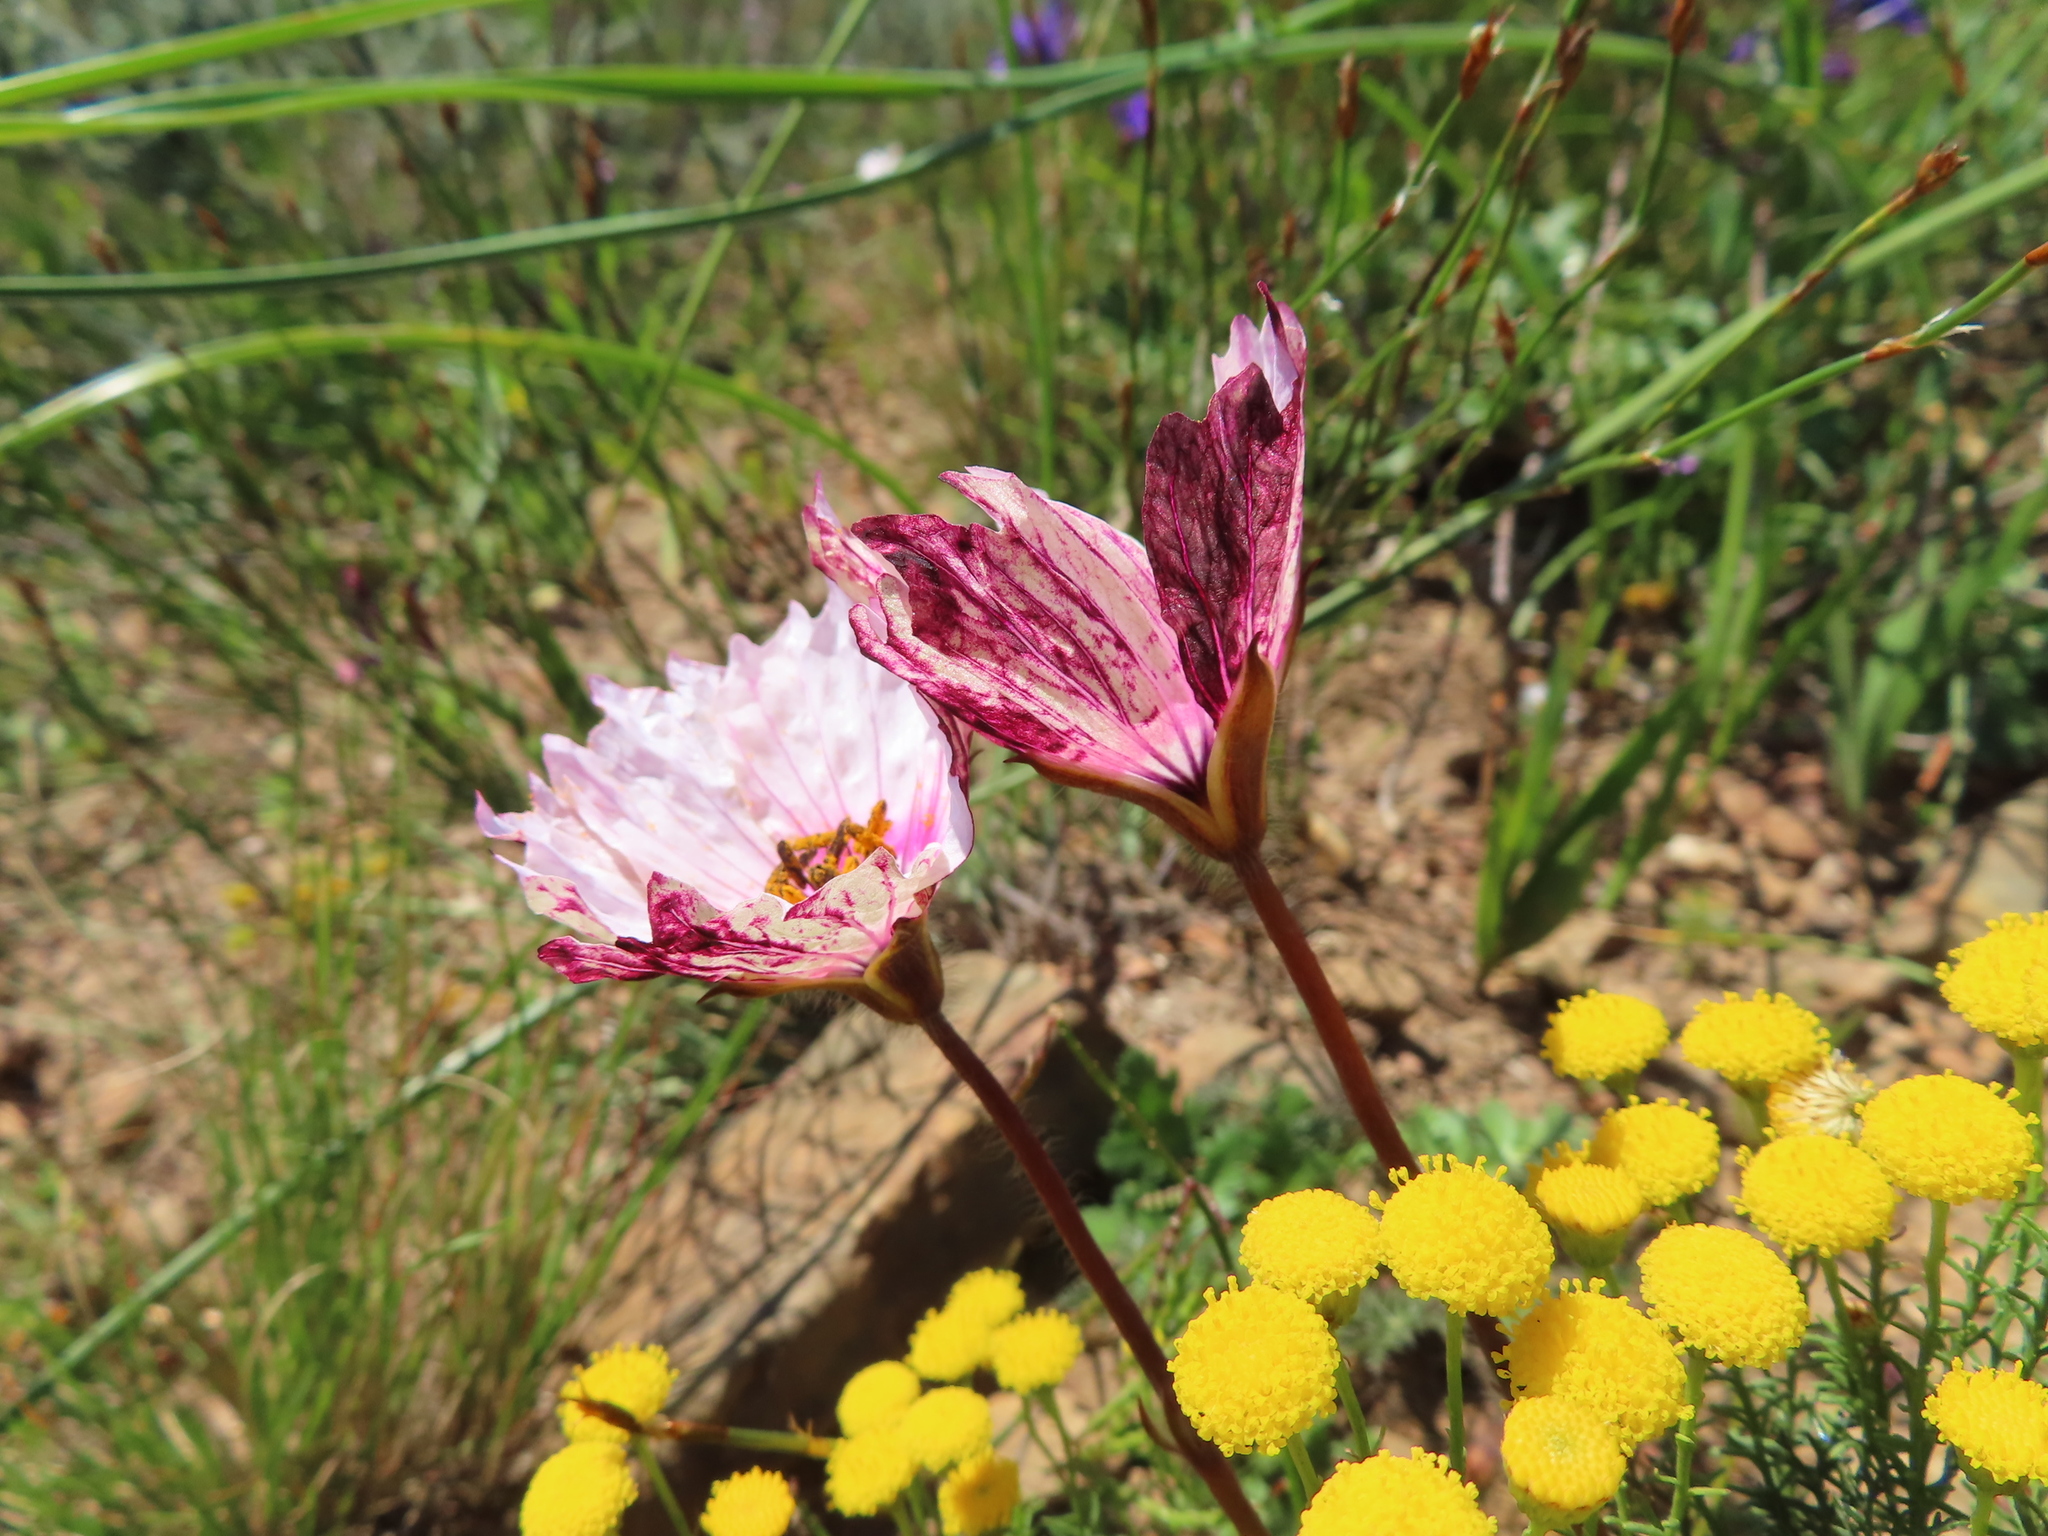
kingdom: Plantae
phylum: Tracheophyta
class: Magnoliopsida
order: Geraniales
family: Geraniaceae
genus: Monsonia
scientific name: Monsonia speciosa
